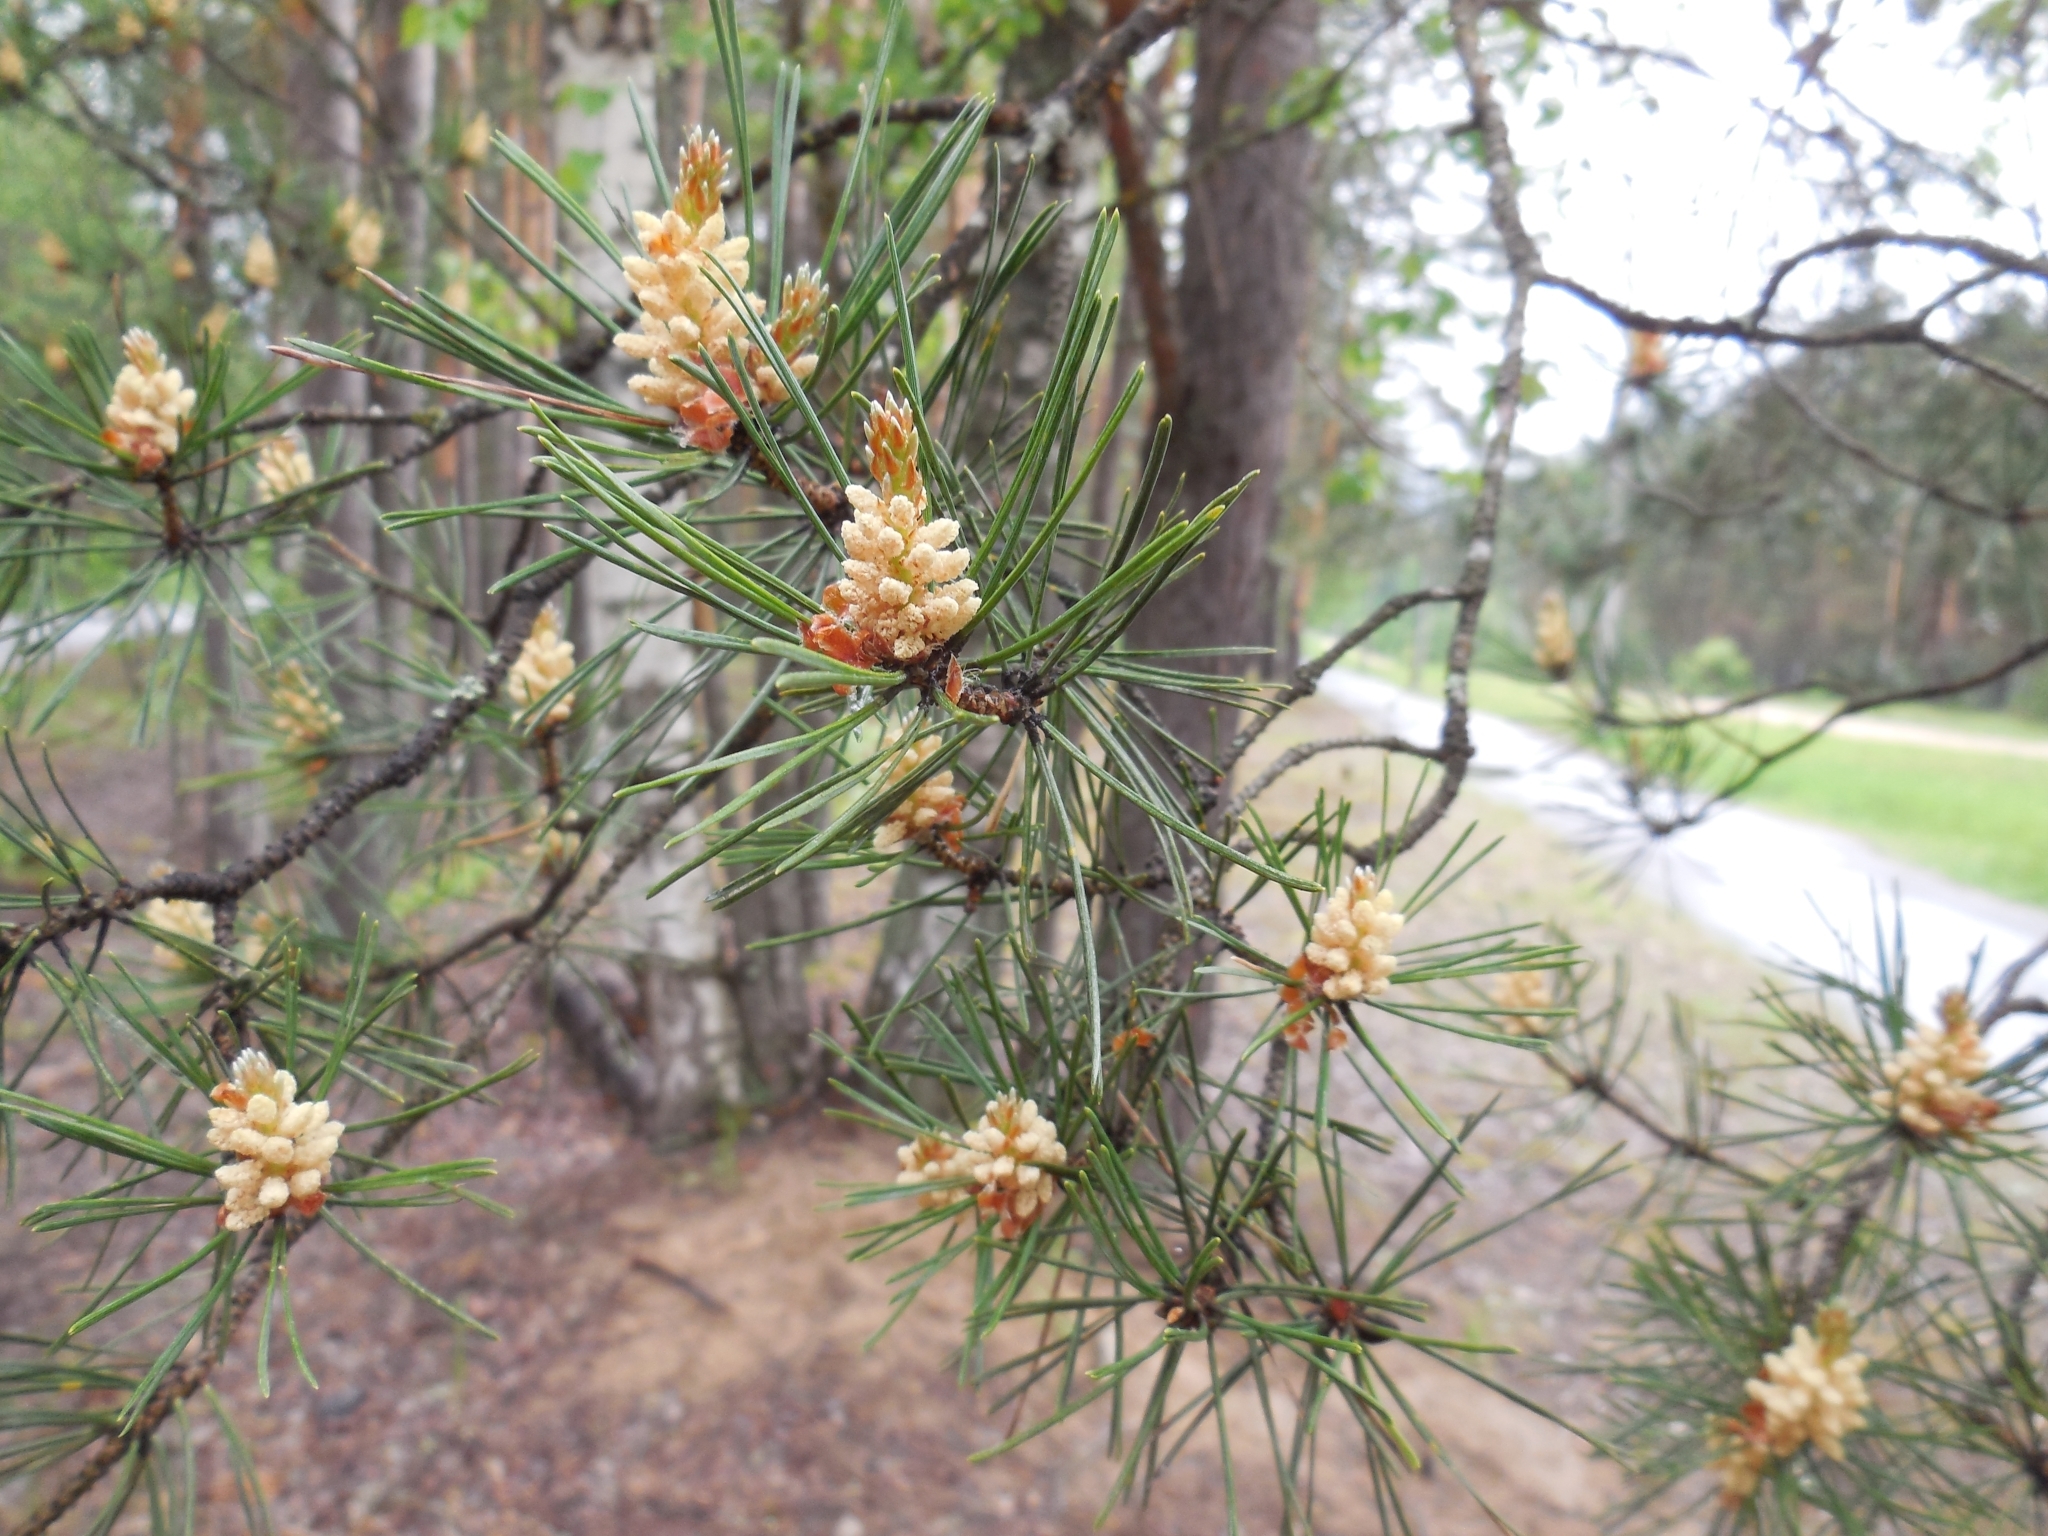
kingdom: Plantae
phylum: Tracheophyta
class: Pinopsida
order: Pinales
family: Pinaceae
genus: Pinus
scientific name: Pinus sylvestris
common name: Scots pine
